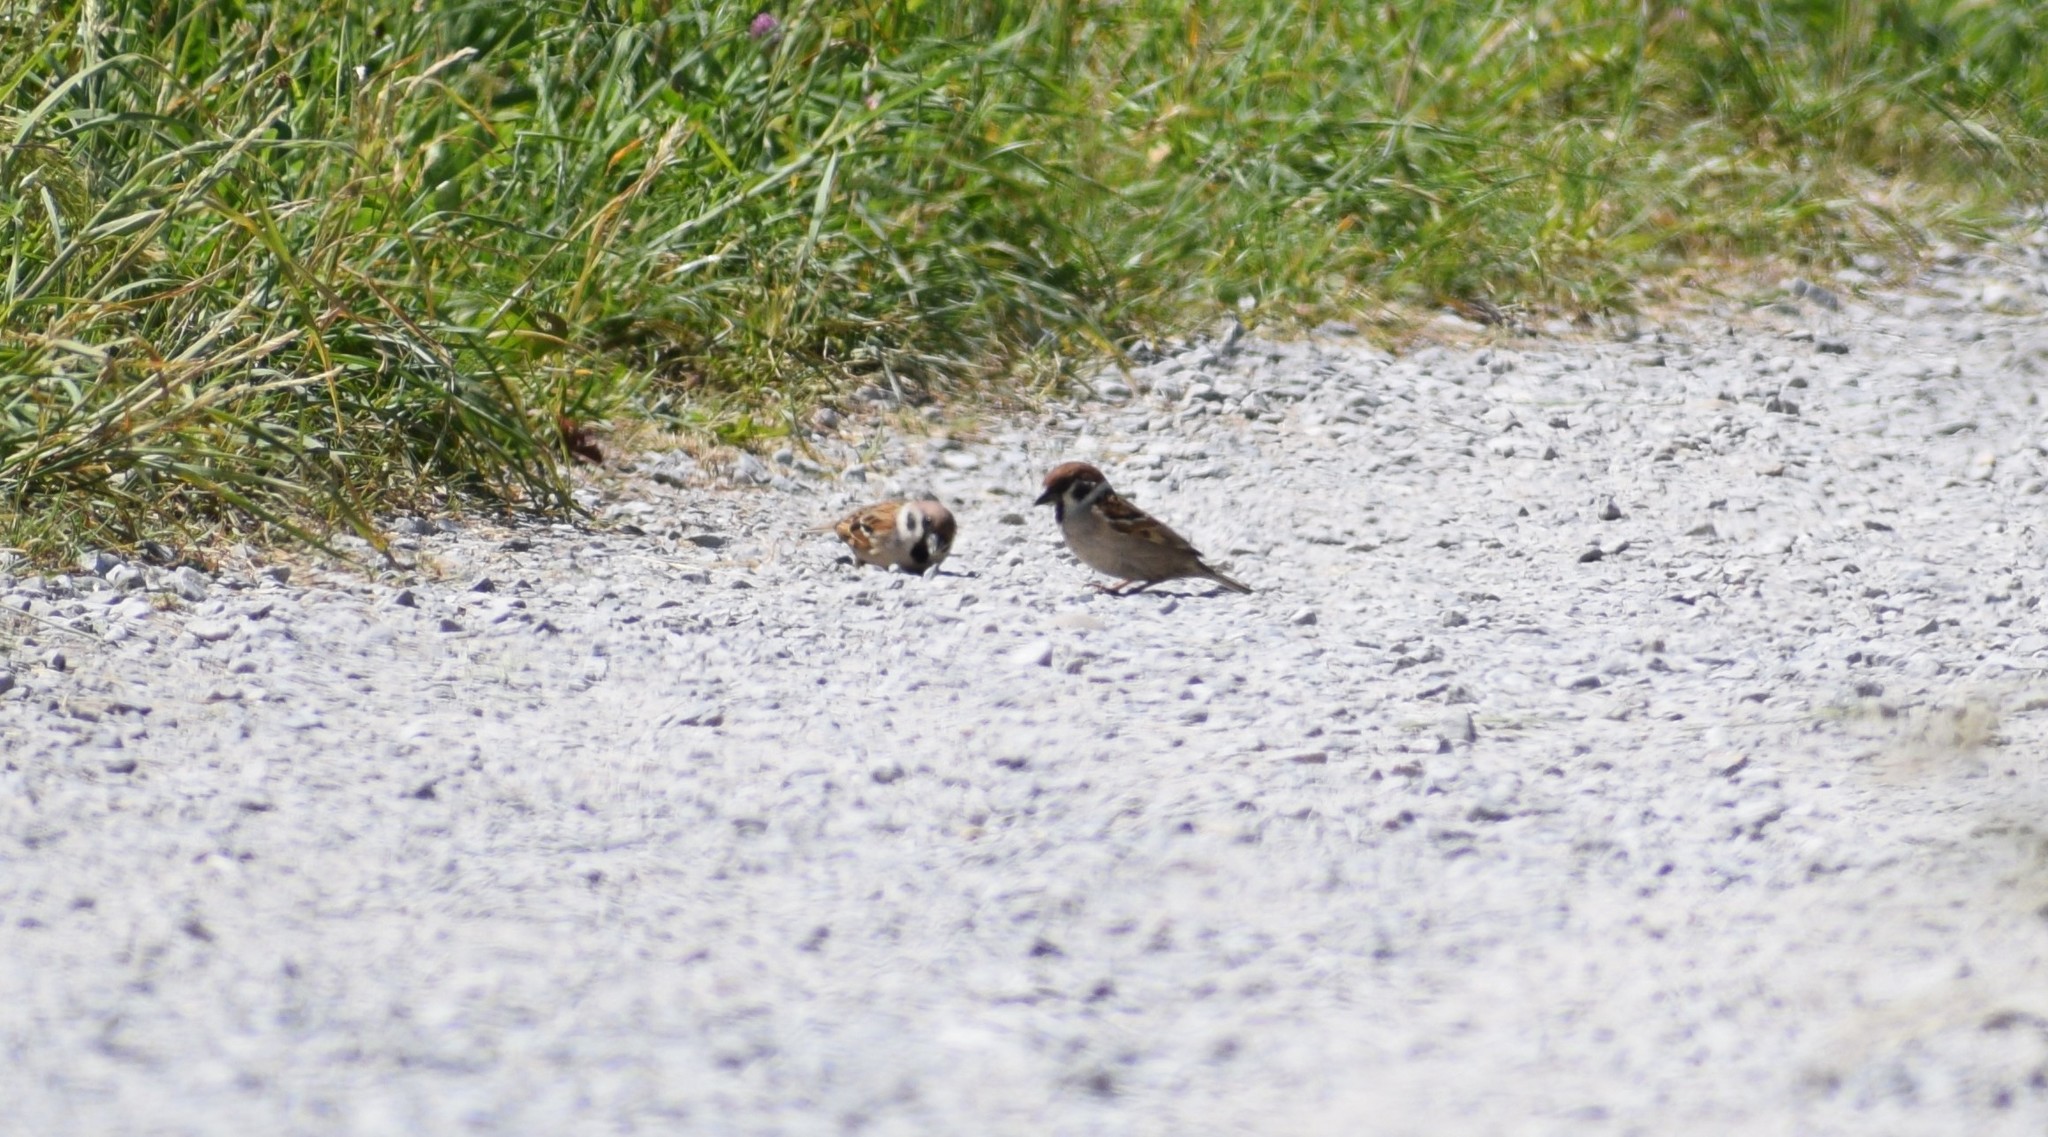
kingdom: Animalia
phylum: Chordata
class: Aves
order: Passeriformes
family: Passeridae
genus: Passer
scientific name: Passer montanus
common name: Eurasian tree sparrow
